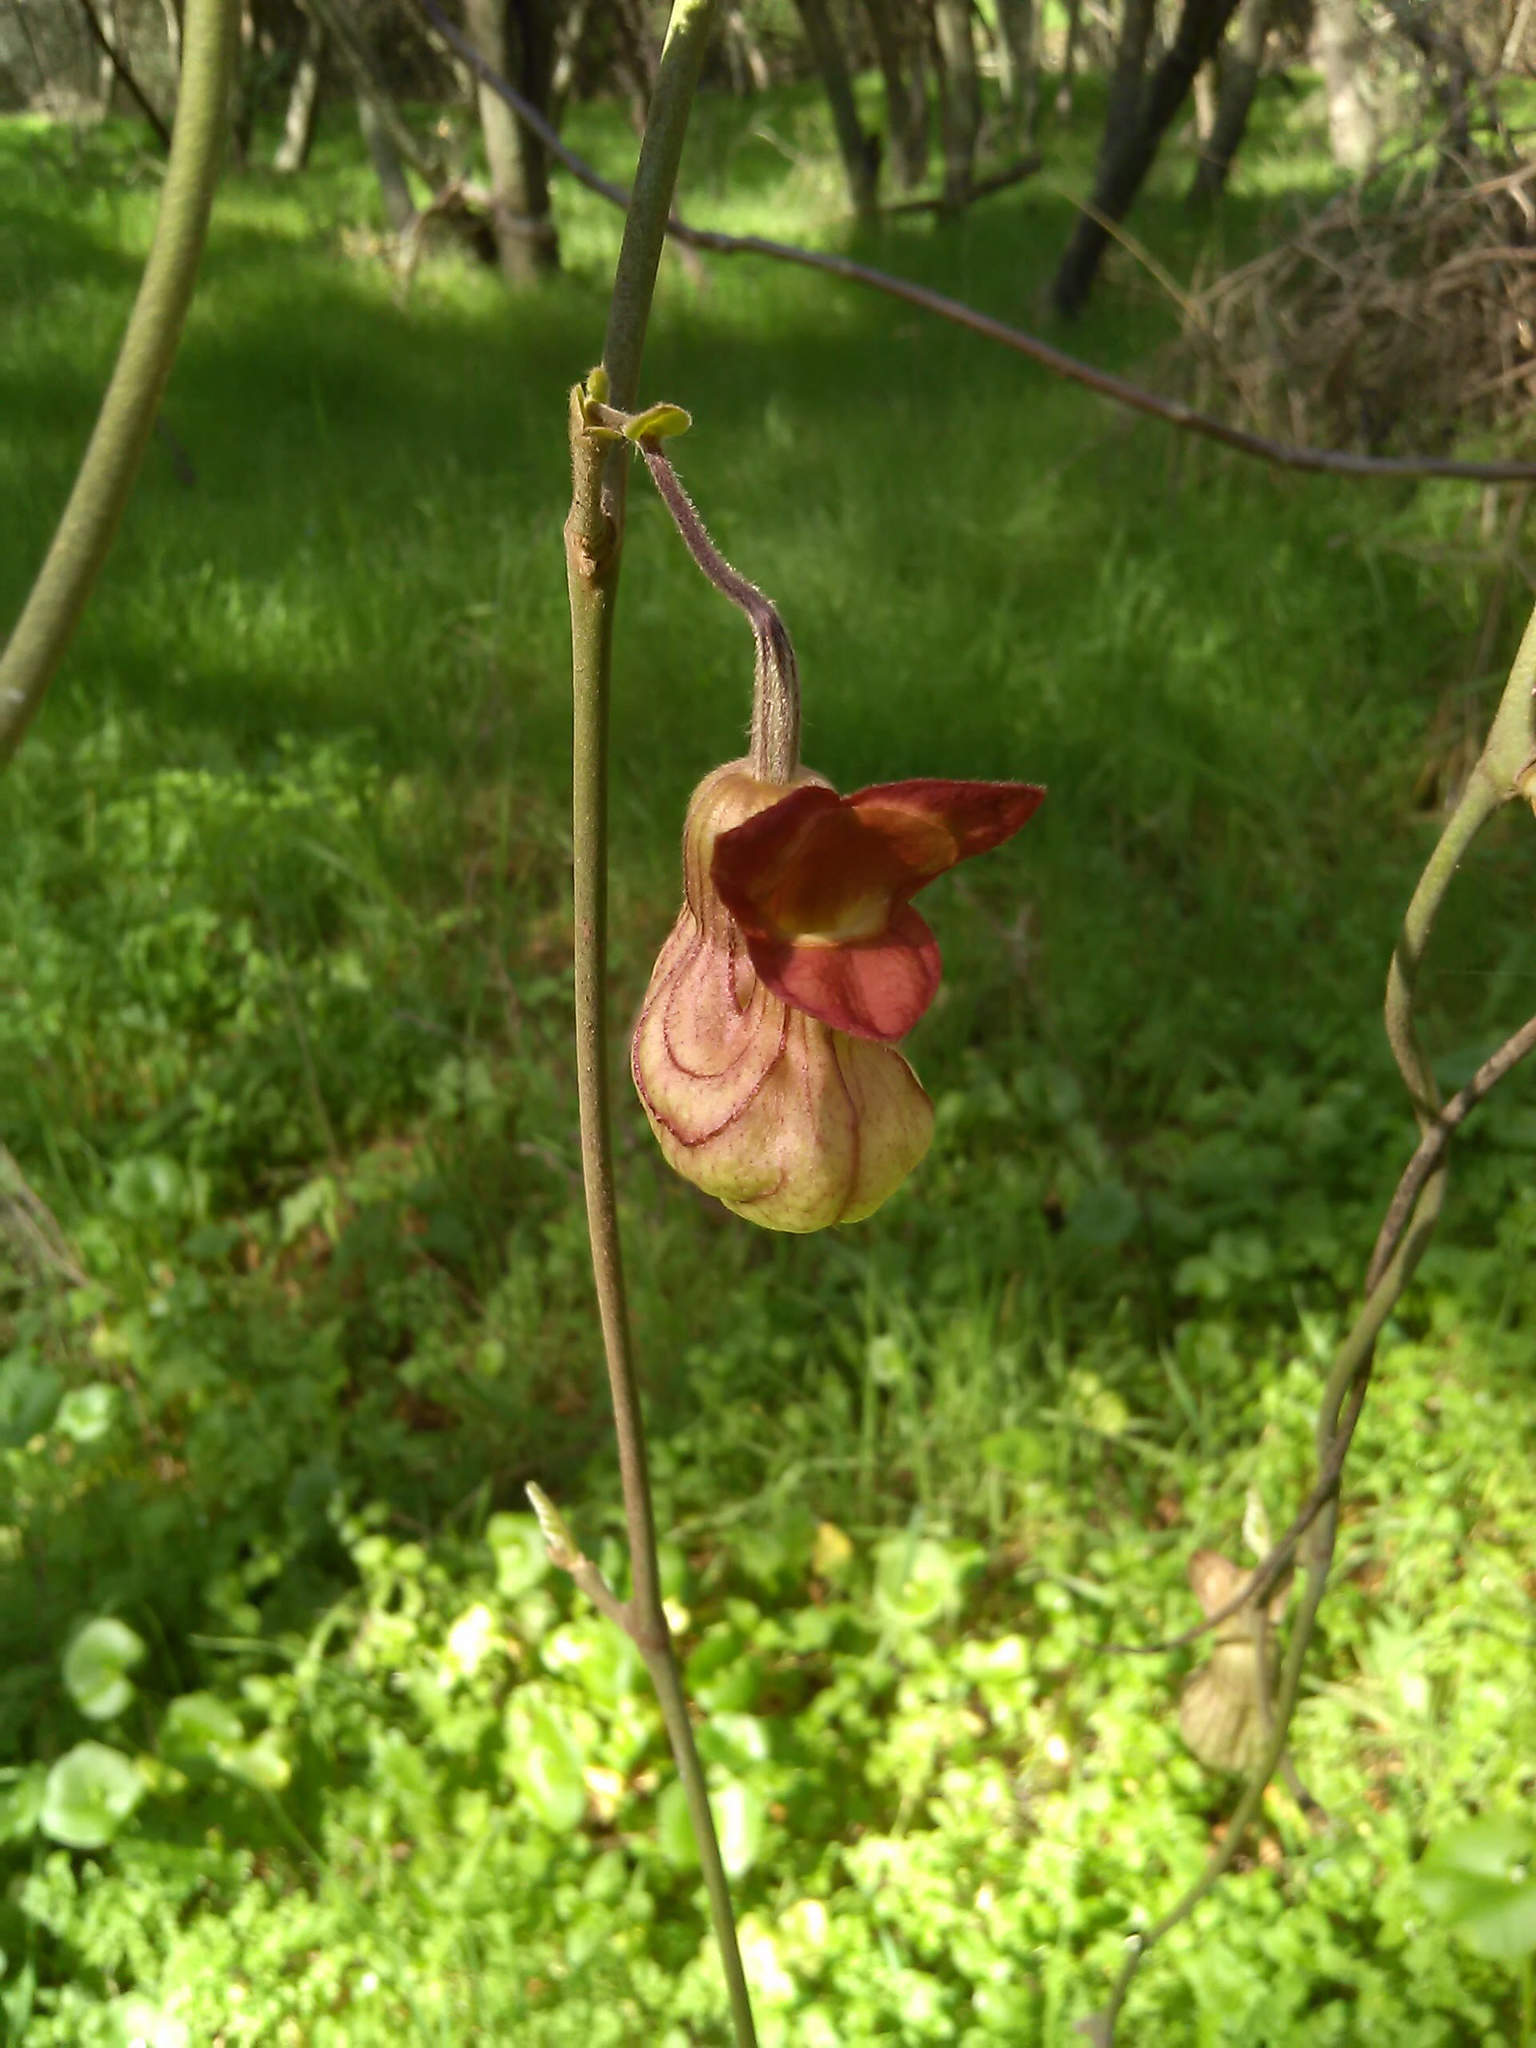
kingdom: Plantae
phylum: Tracheophyta
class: Magnoliopsida
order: Piperales
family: Aristolochiaceae
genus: Isotrema
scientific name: Isotrema californicum
